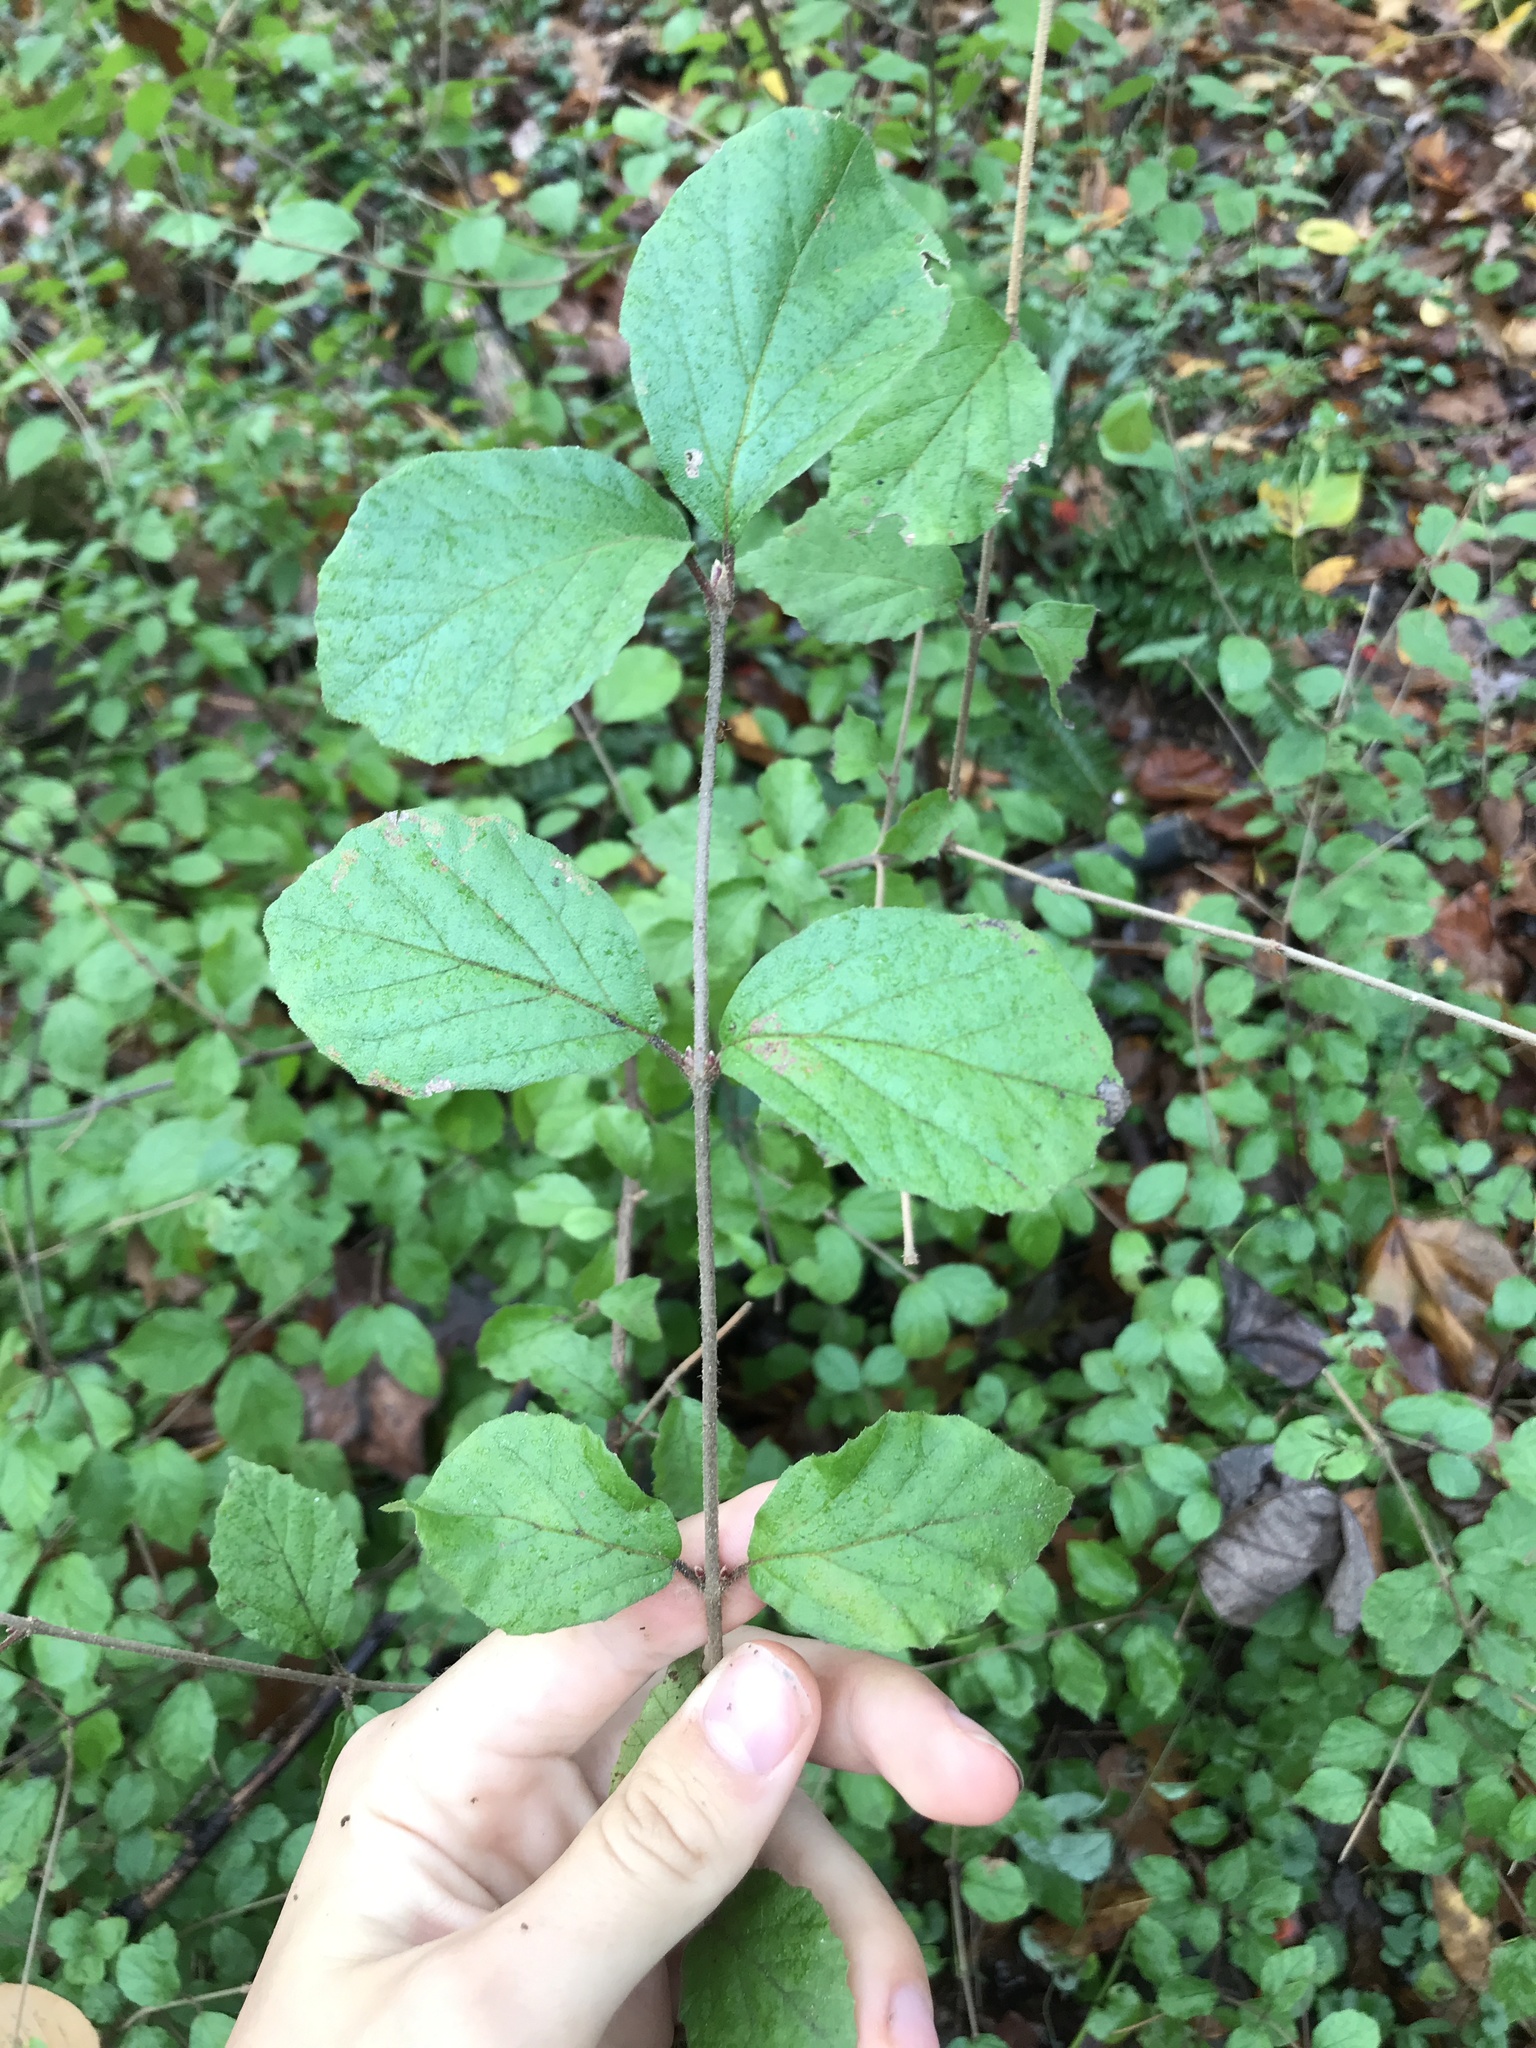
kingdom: Plantae
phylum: Tracheophyta
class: Magnoliopsida
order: Dipsacales
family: Viburnaceae
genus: Viburnum
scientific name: Viburnum dilatatum
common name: Linden arrowwood
